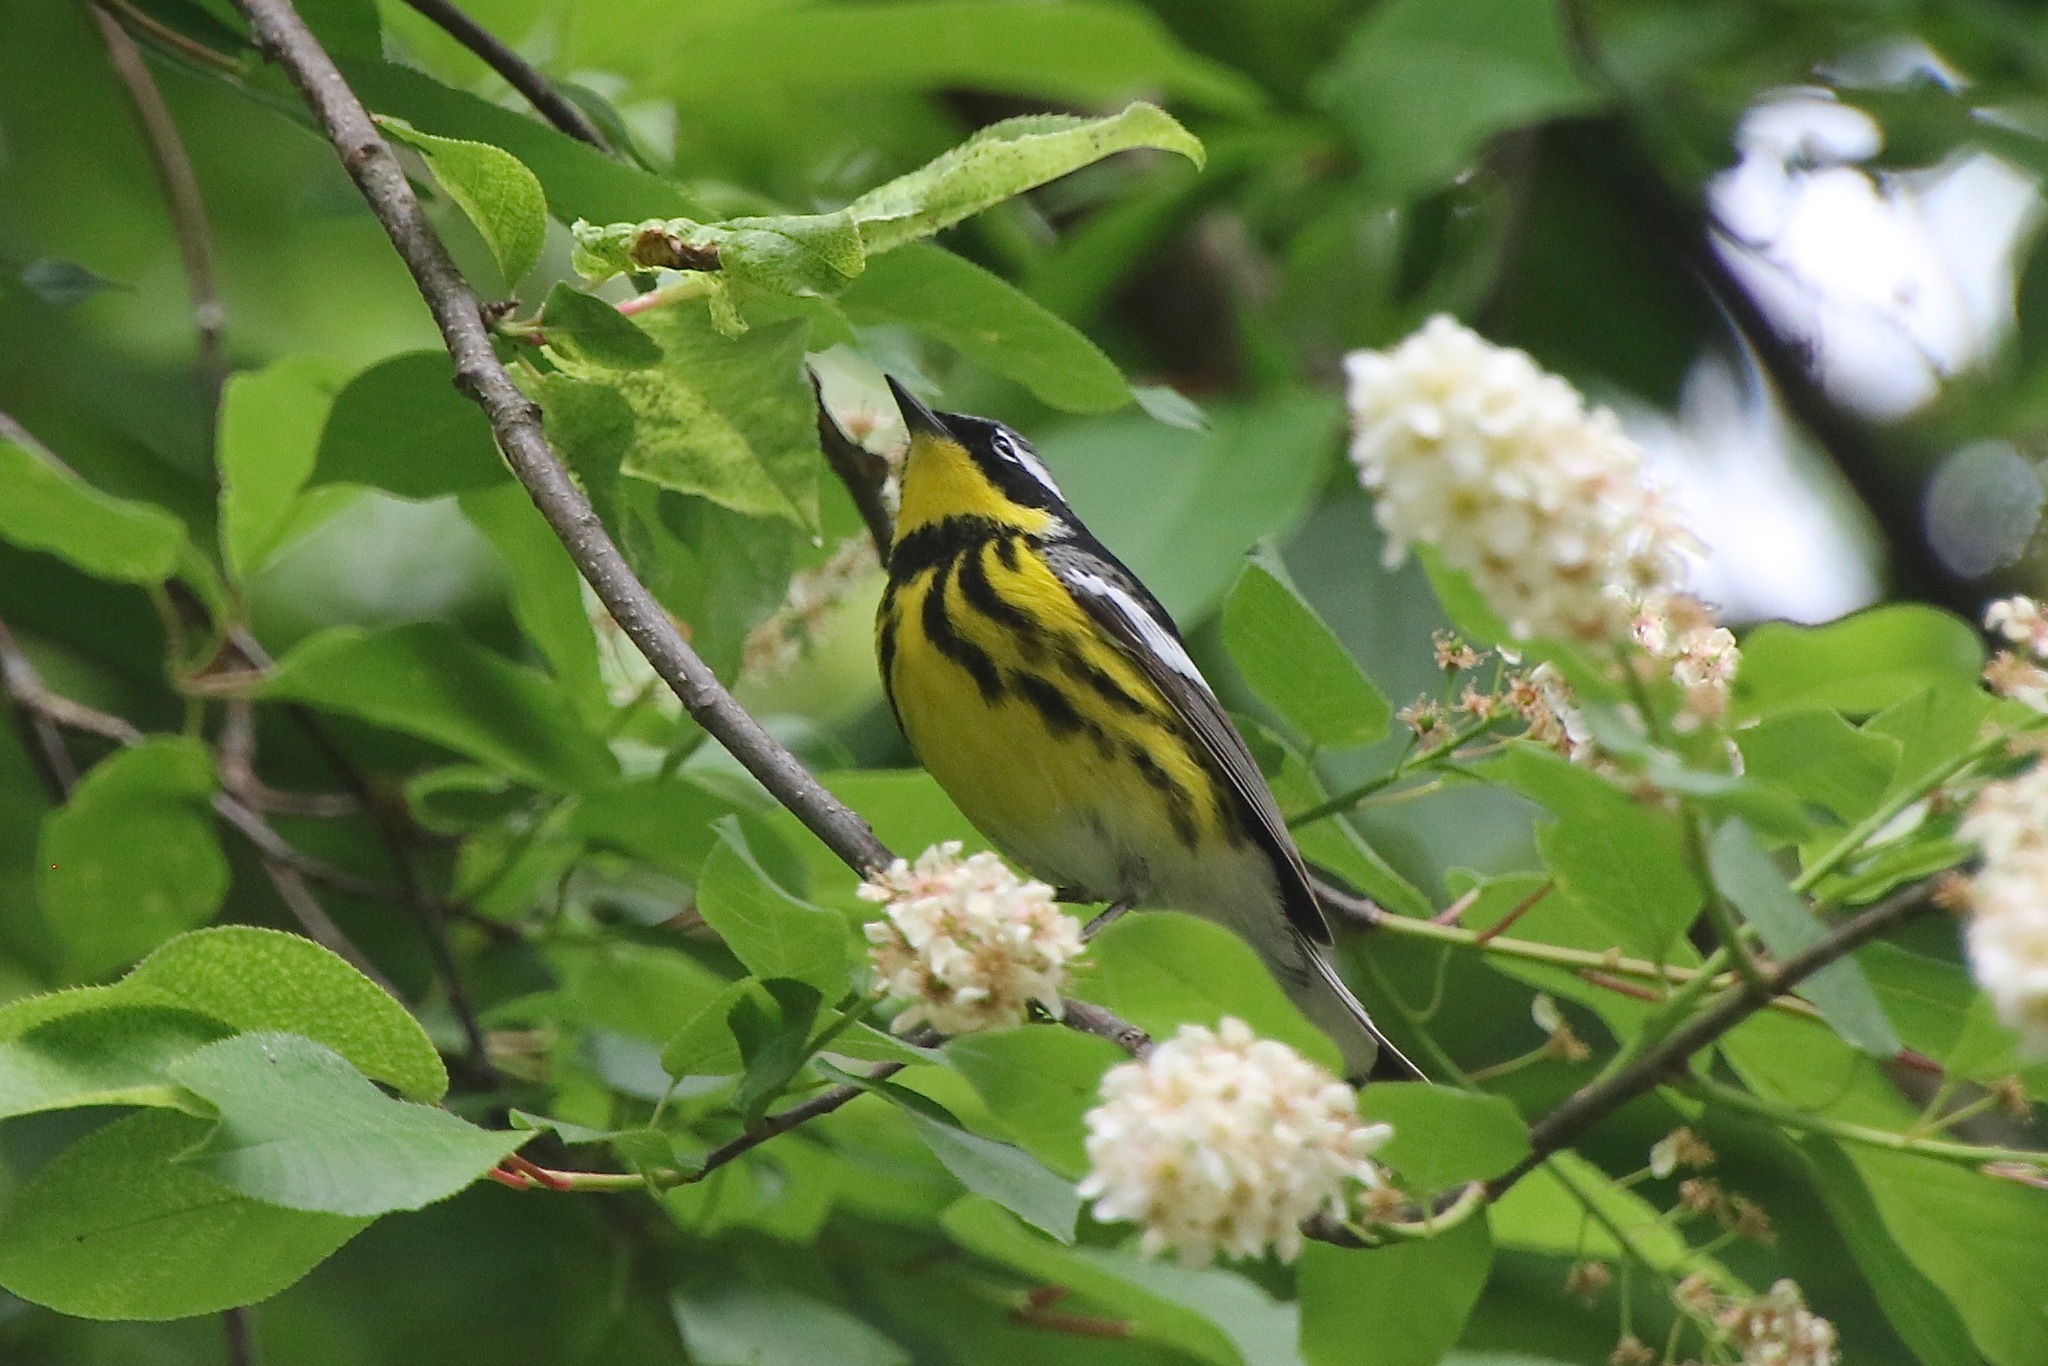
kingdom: Animalia
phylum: Chordata
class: Aves
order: Passeriformes
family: Parulidae
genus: Setophaga
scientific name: Setophaga magnolia
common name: Magnolia warbler
